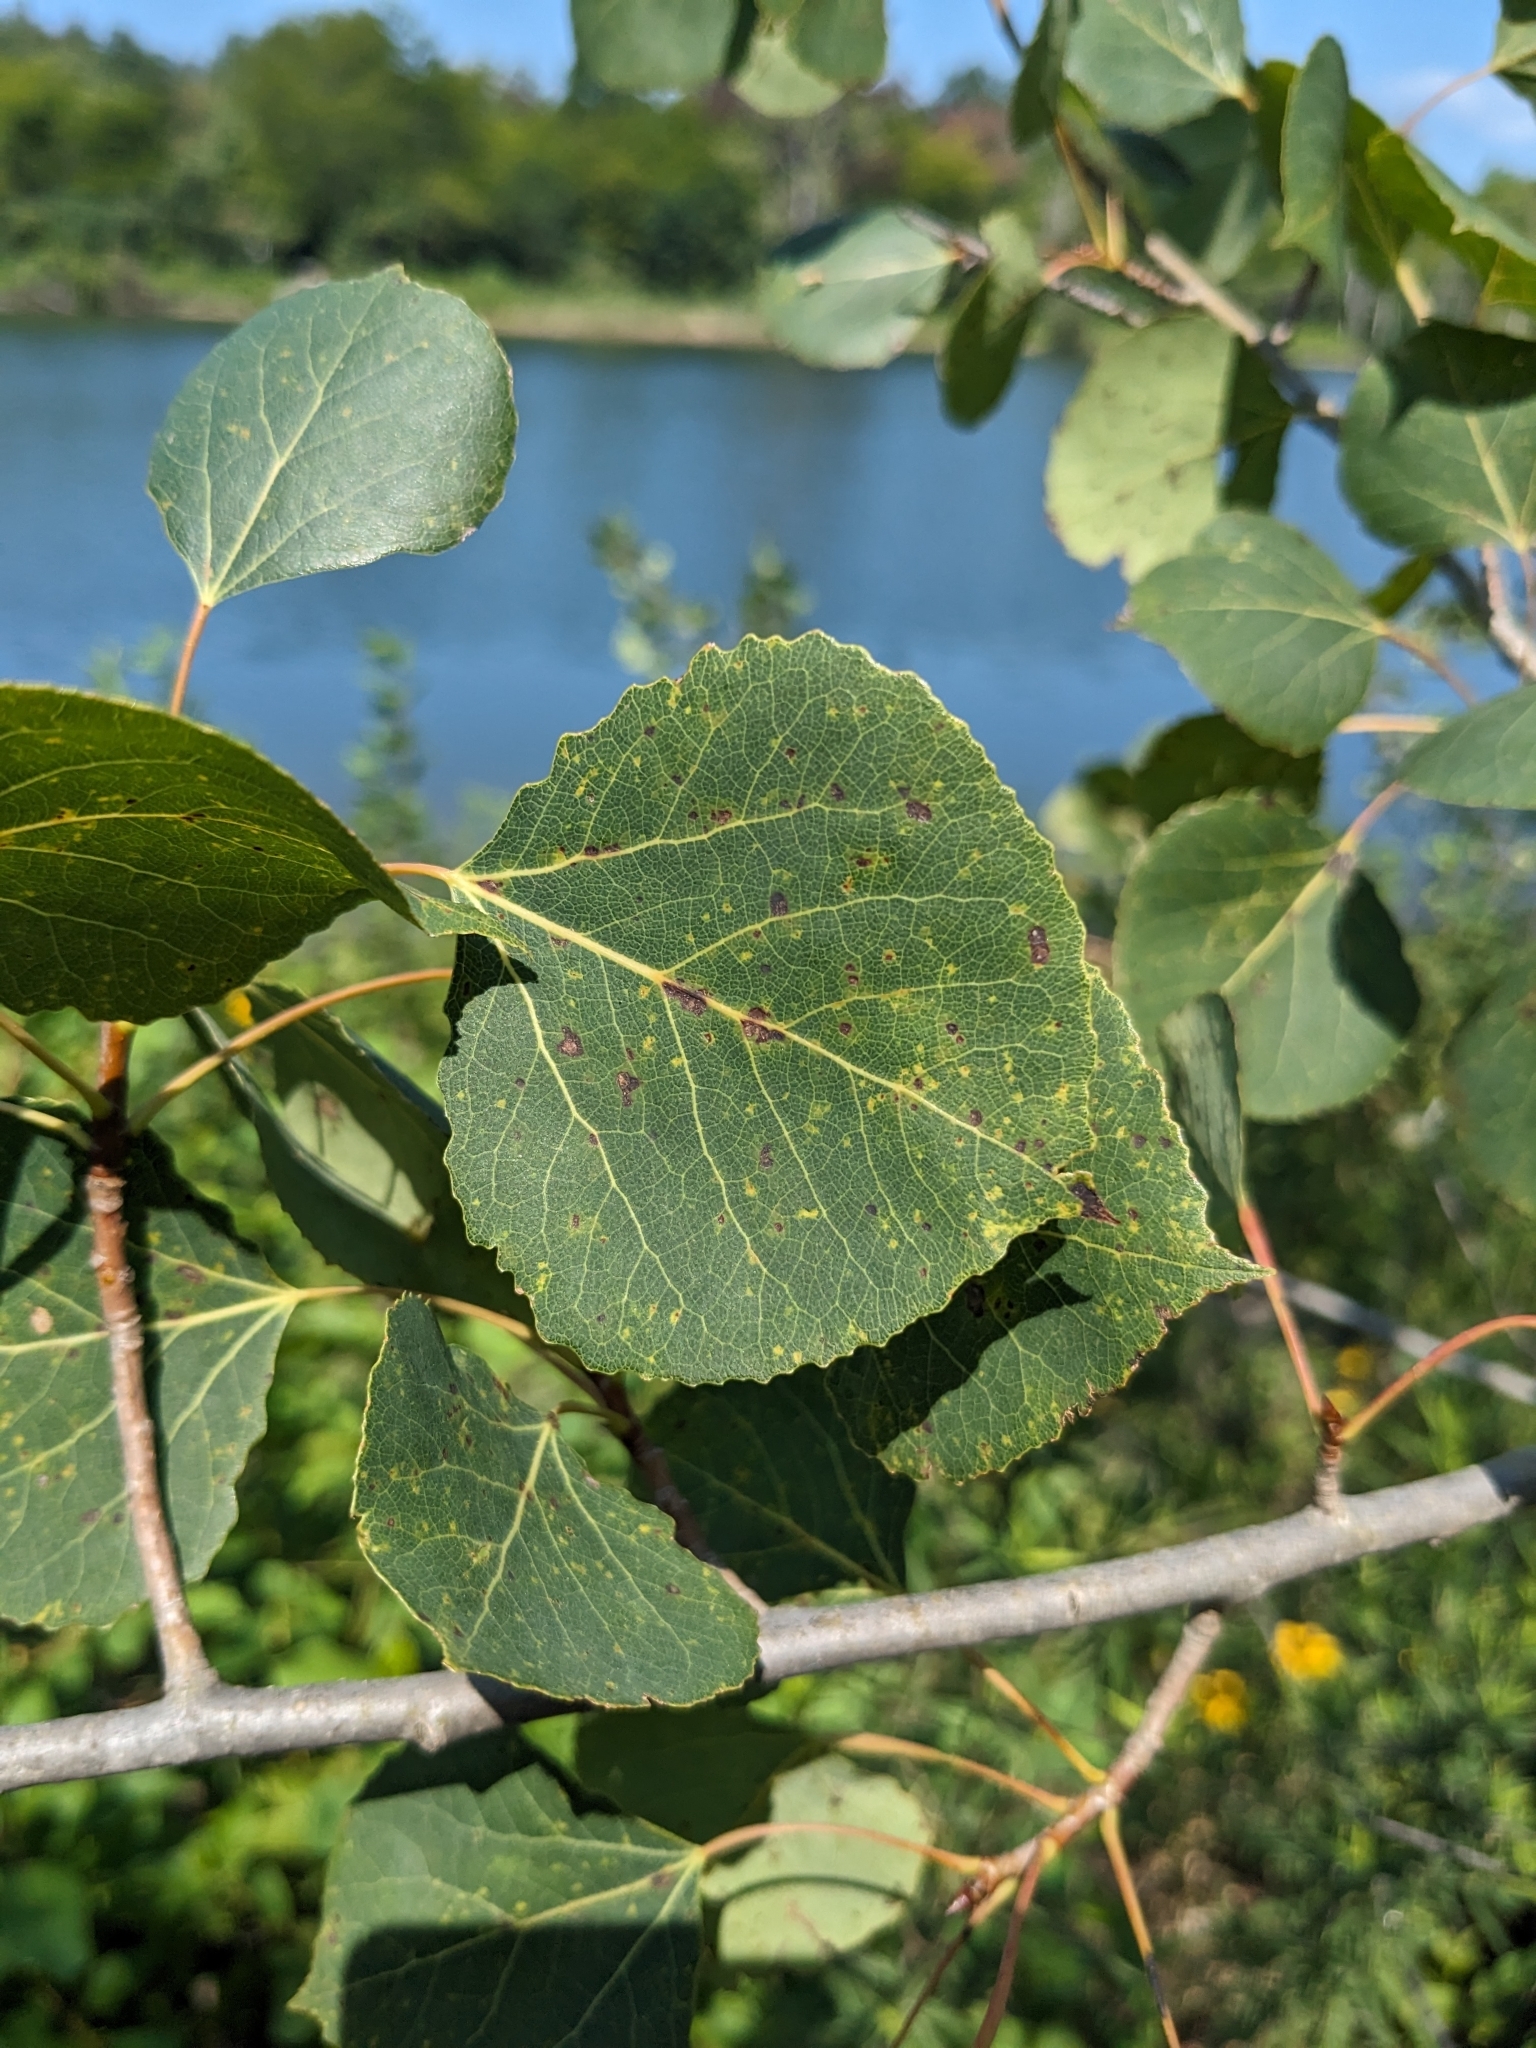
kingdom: Plantae
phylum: Tracheophyta
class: Magnoliopsida
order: Malpighiales
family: Salicaceae
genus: Populus
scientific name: Populus tremuloides
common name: Quaking aspen
